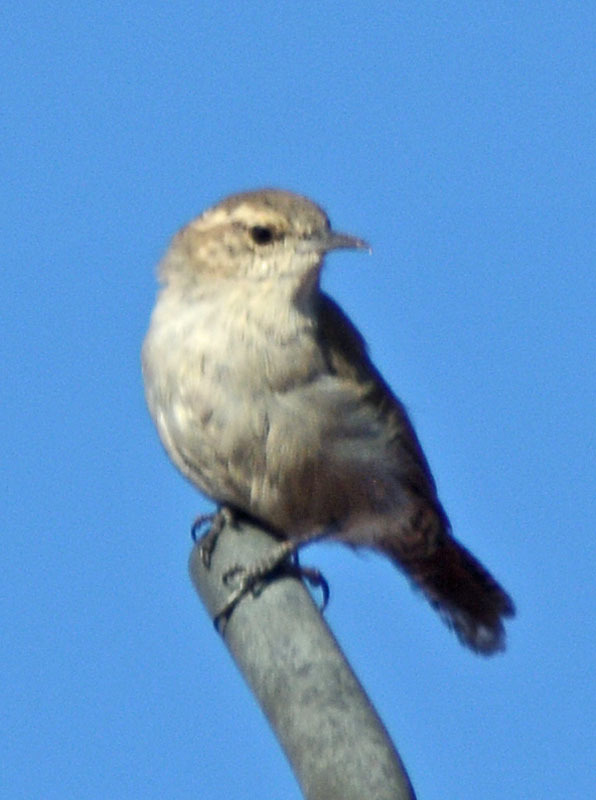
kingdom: Animalia
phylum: Chordata
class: Aves
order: Passeriformes
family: Troglodytidae
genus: Thryomanes
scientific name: Thryomanes bewickii
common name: Bewick's wren
